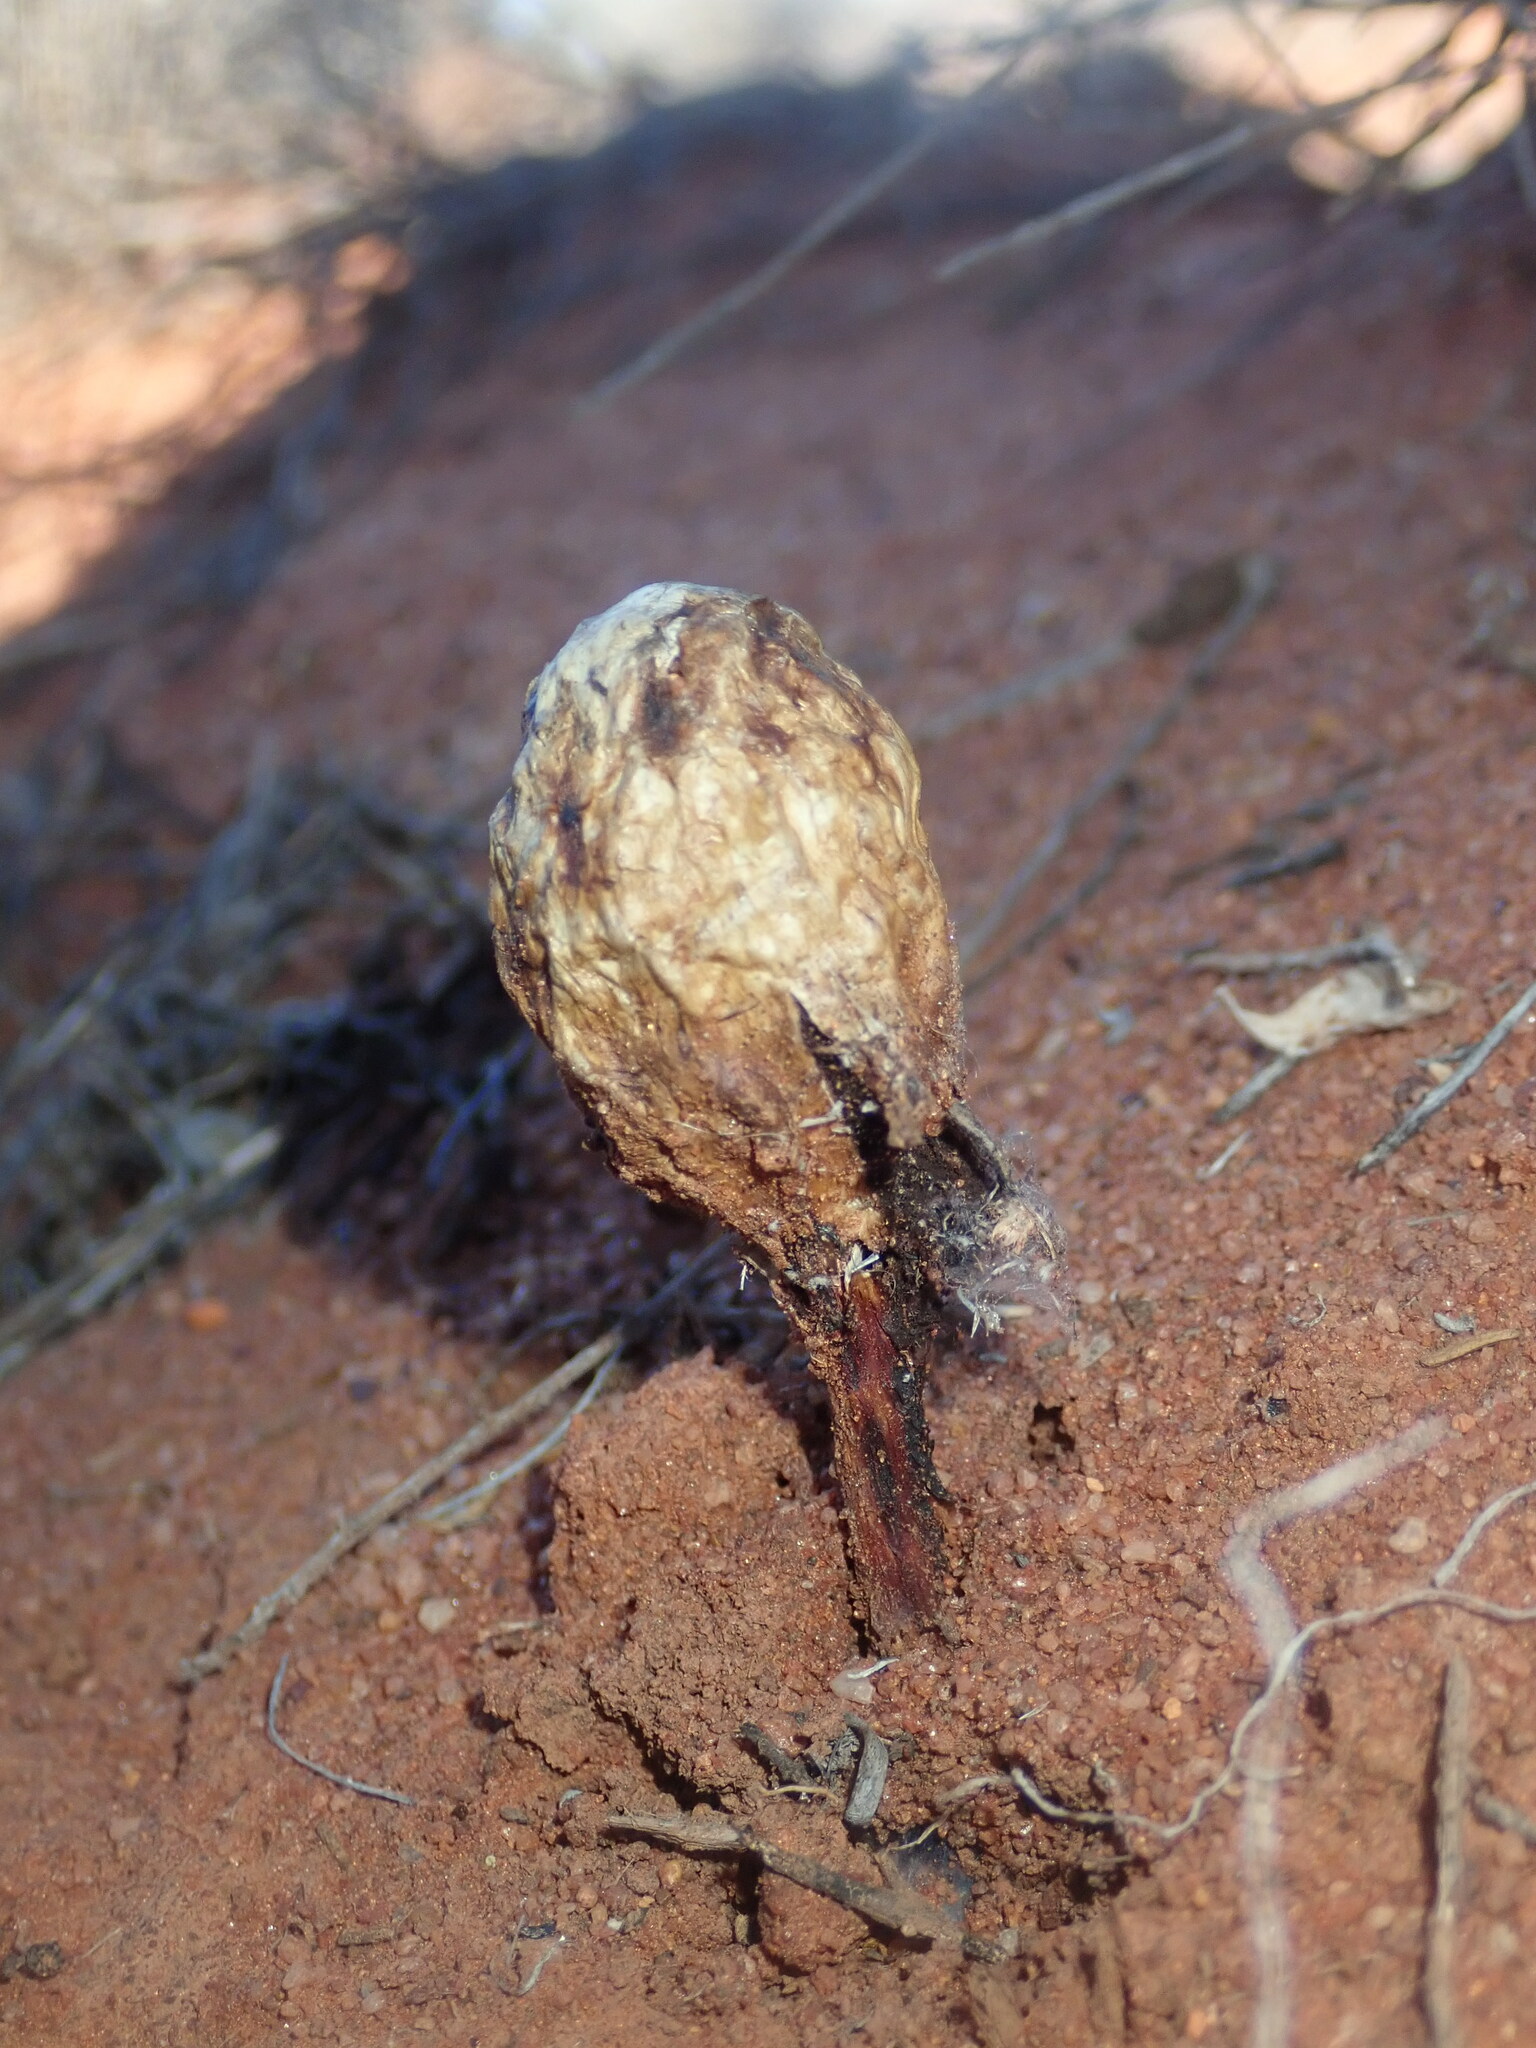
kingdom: Fungi
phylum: Basidiomycota
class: Agaricomycetes
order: Agaricales
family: Agaricaceae
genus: Podaxis
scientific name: Podaxis pistillaris
